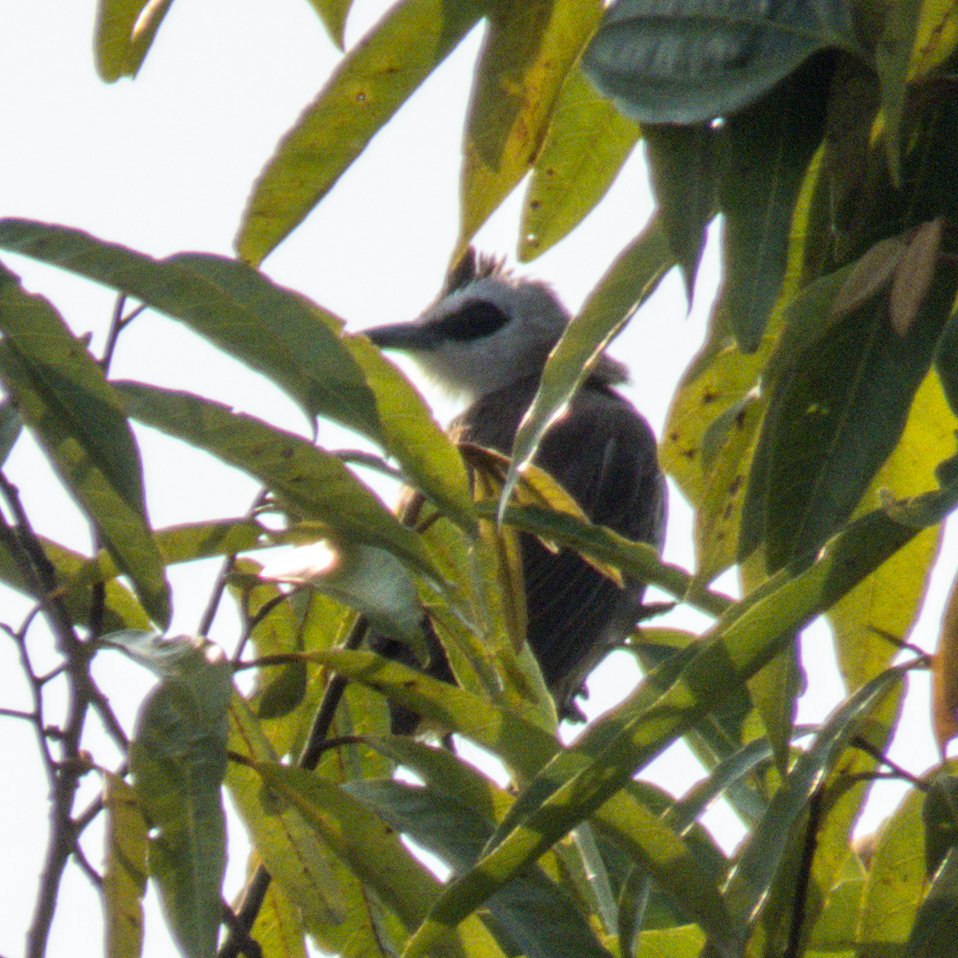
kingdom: Animalia
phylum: Chordata
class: Aves
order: Passeriformes
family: Pycnonotidae
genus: Pycnonotus
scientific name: Pycnonotus goiavier
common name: Yellow-vented bulbul
